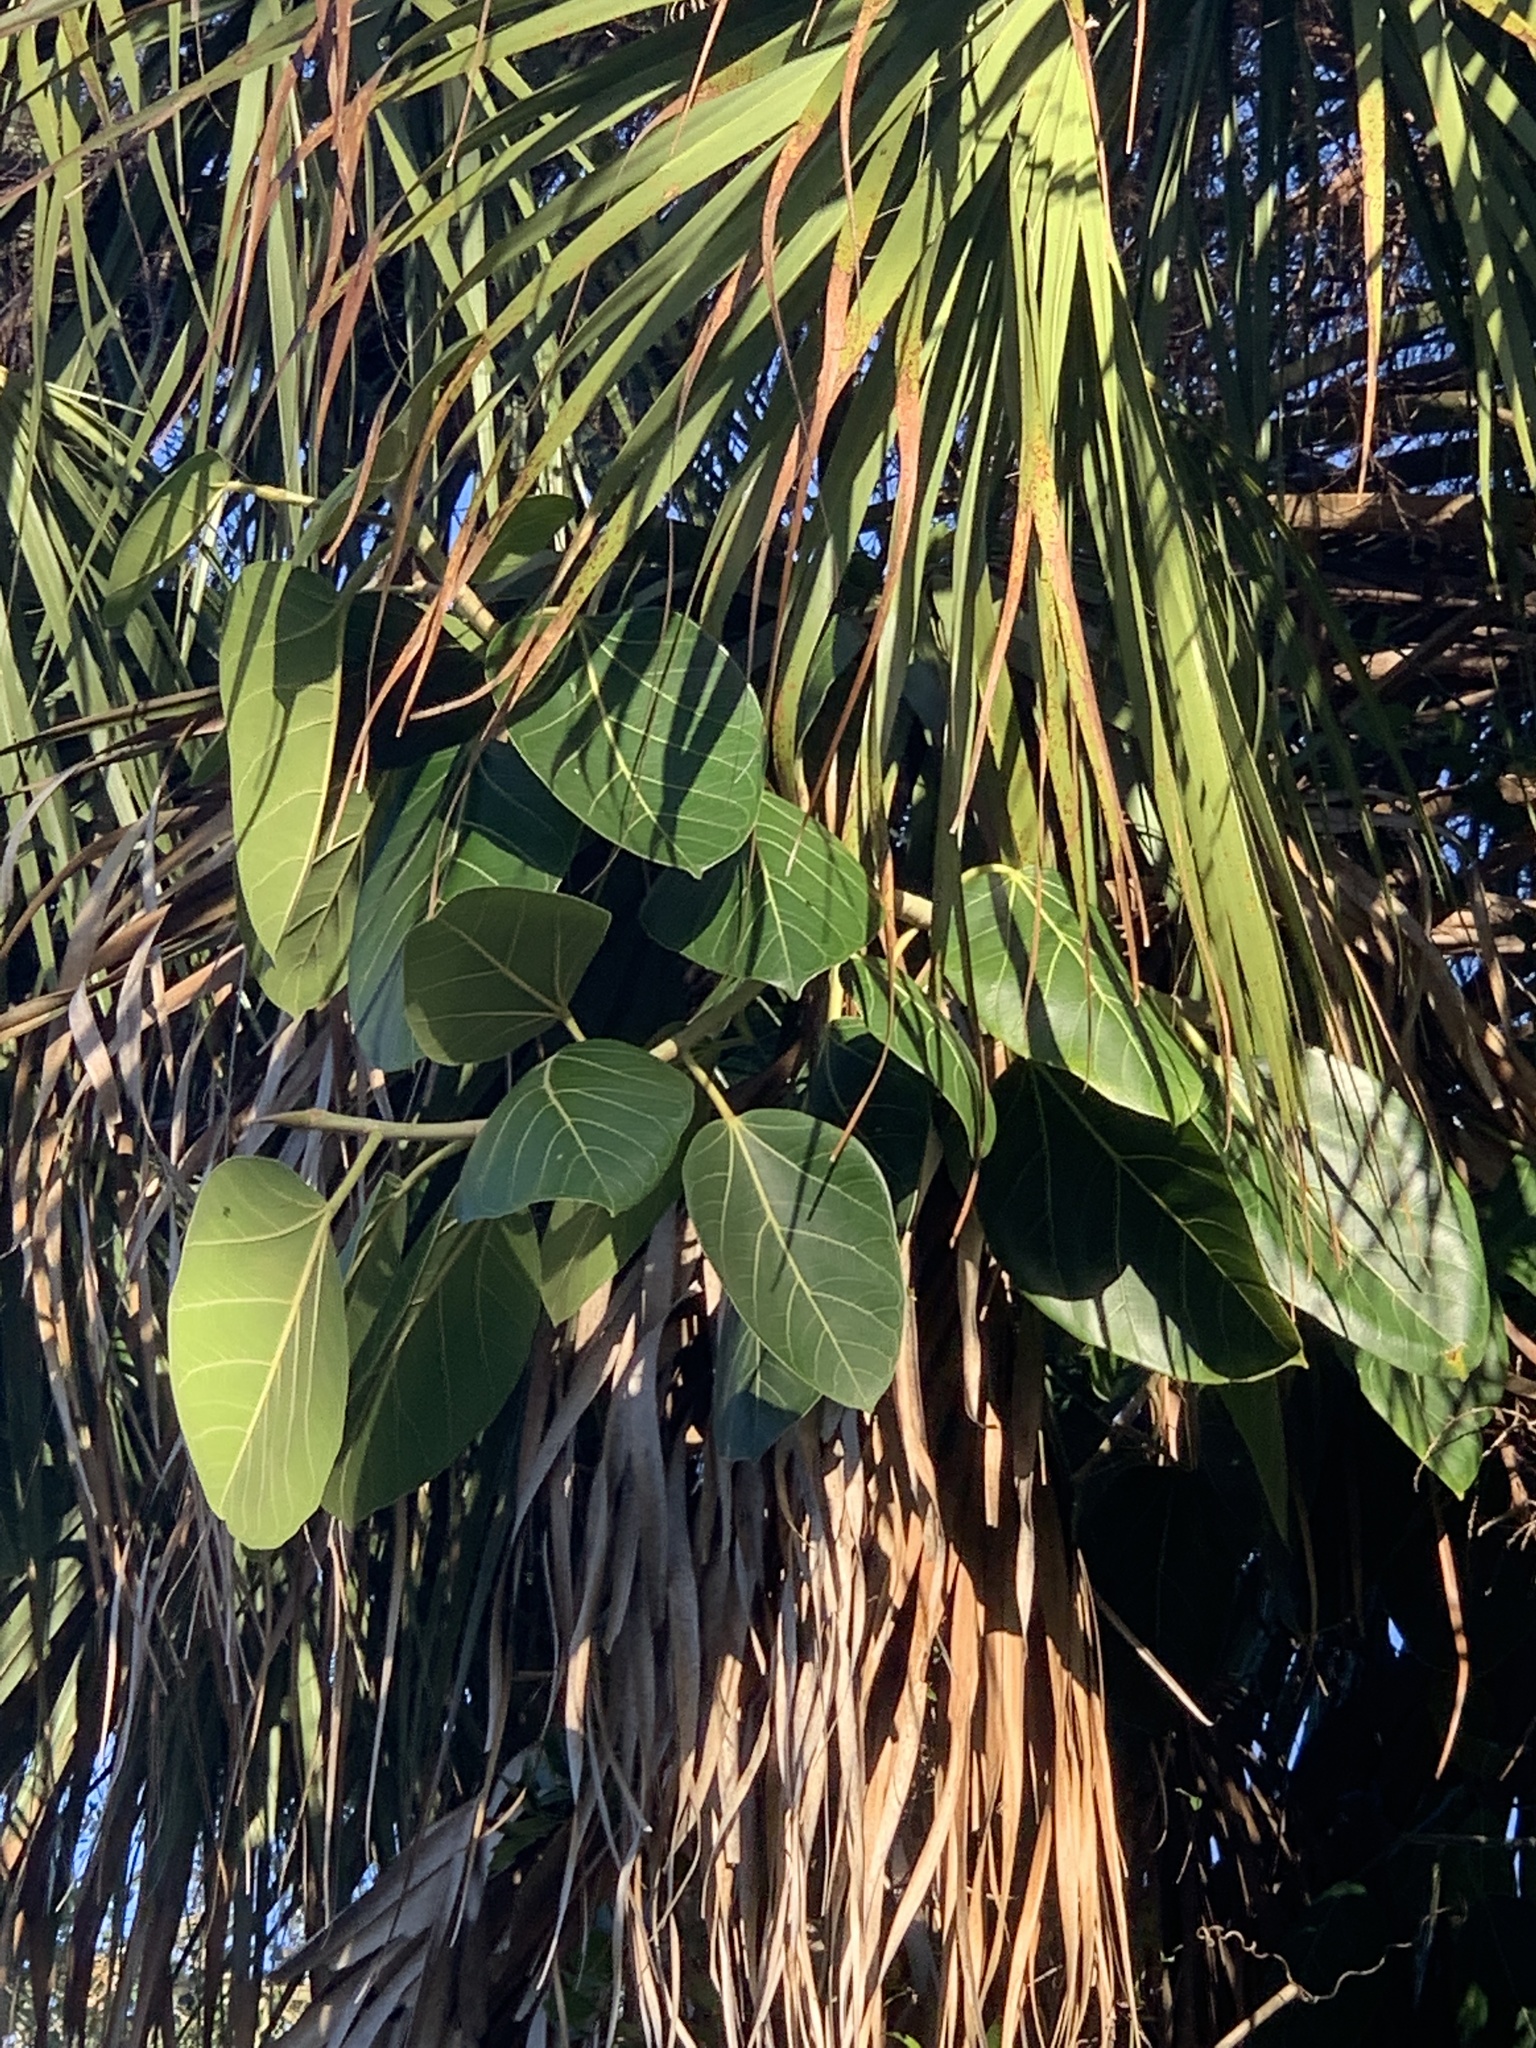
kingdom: Plantae
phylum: Tracheophyta
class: Magnoliopsida
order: Rosales
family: Moraceae
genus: Ficus
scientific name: Ficus benghalensis
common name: Indian banyan
